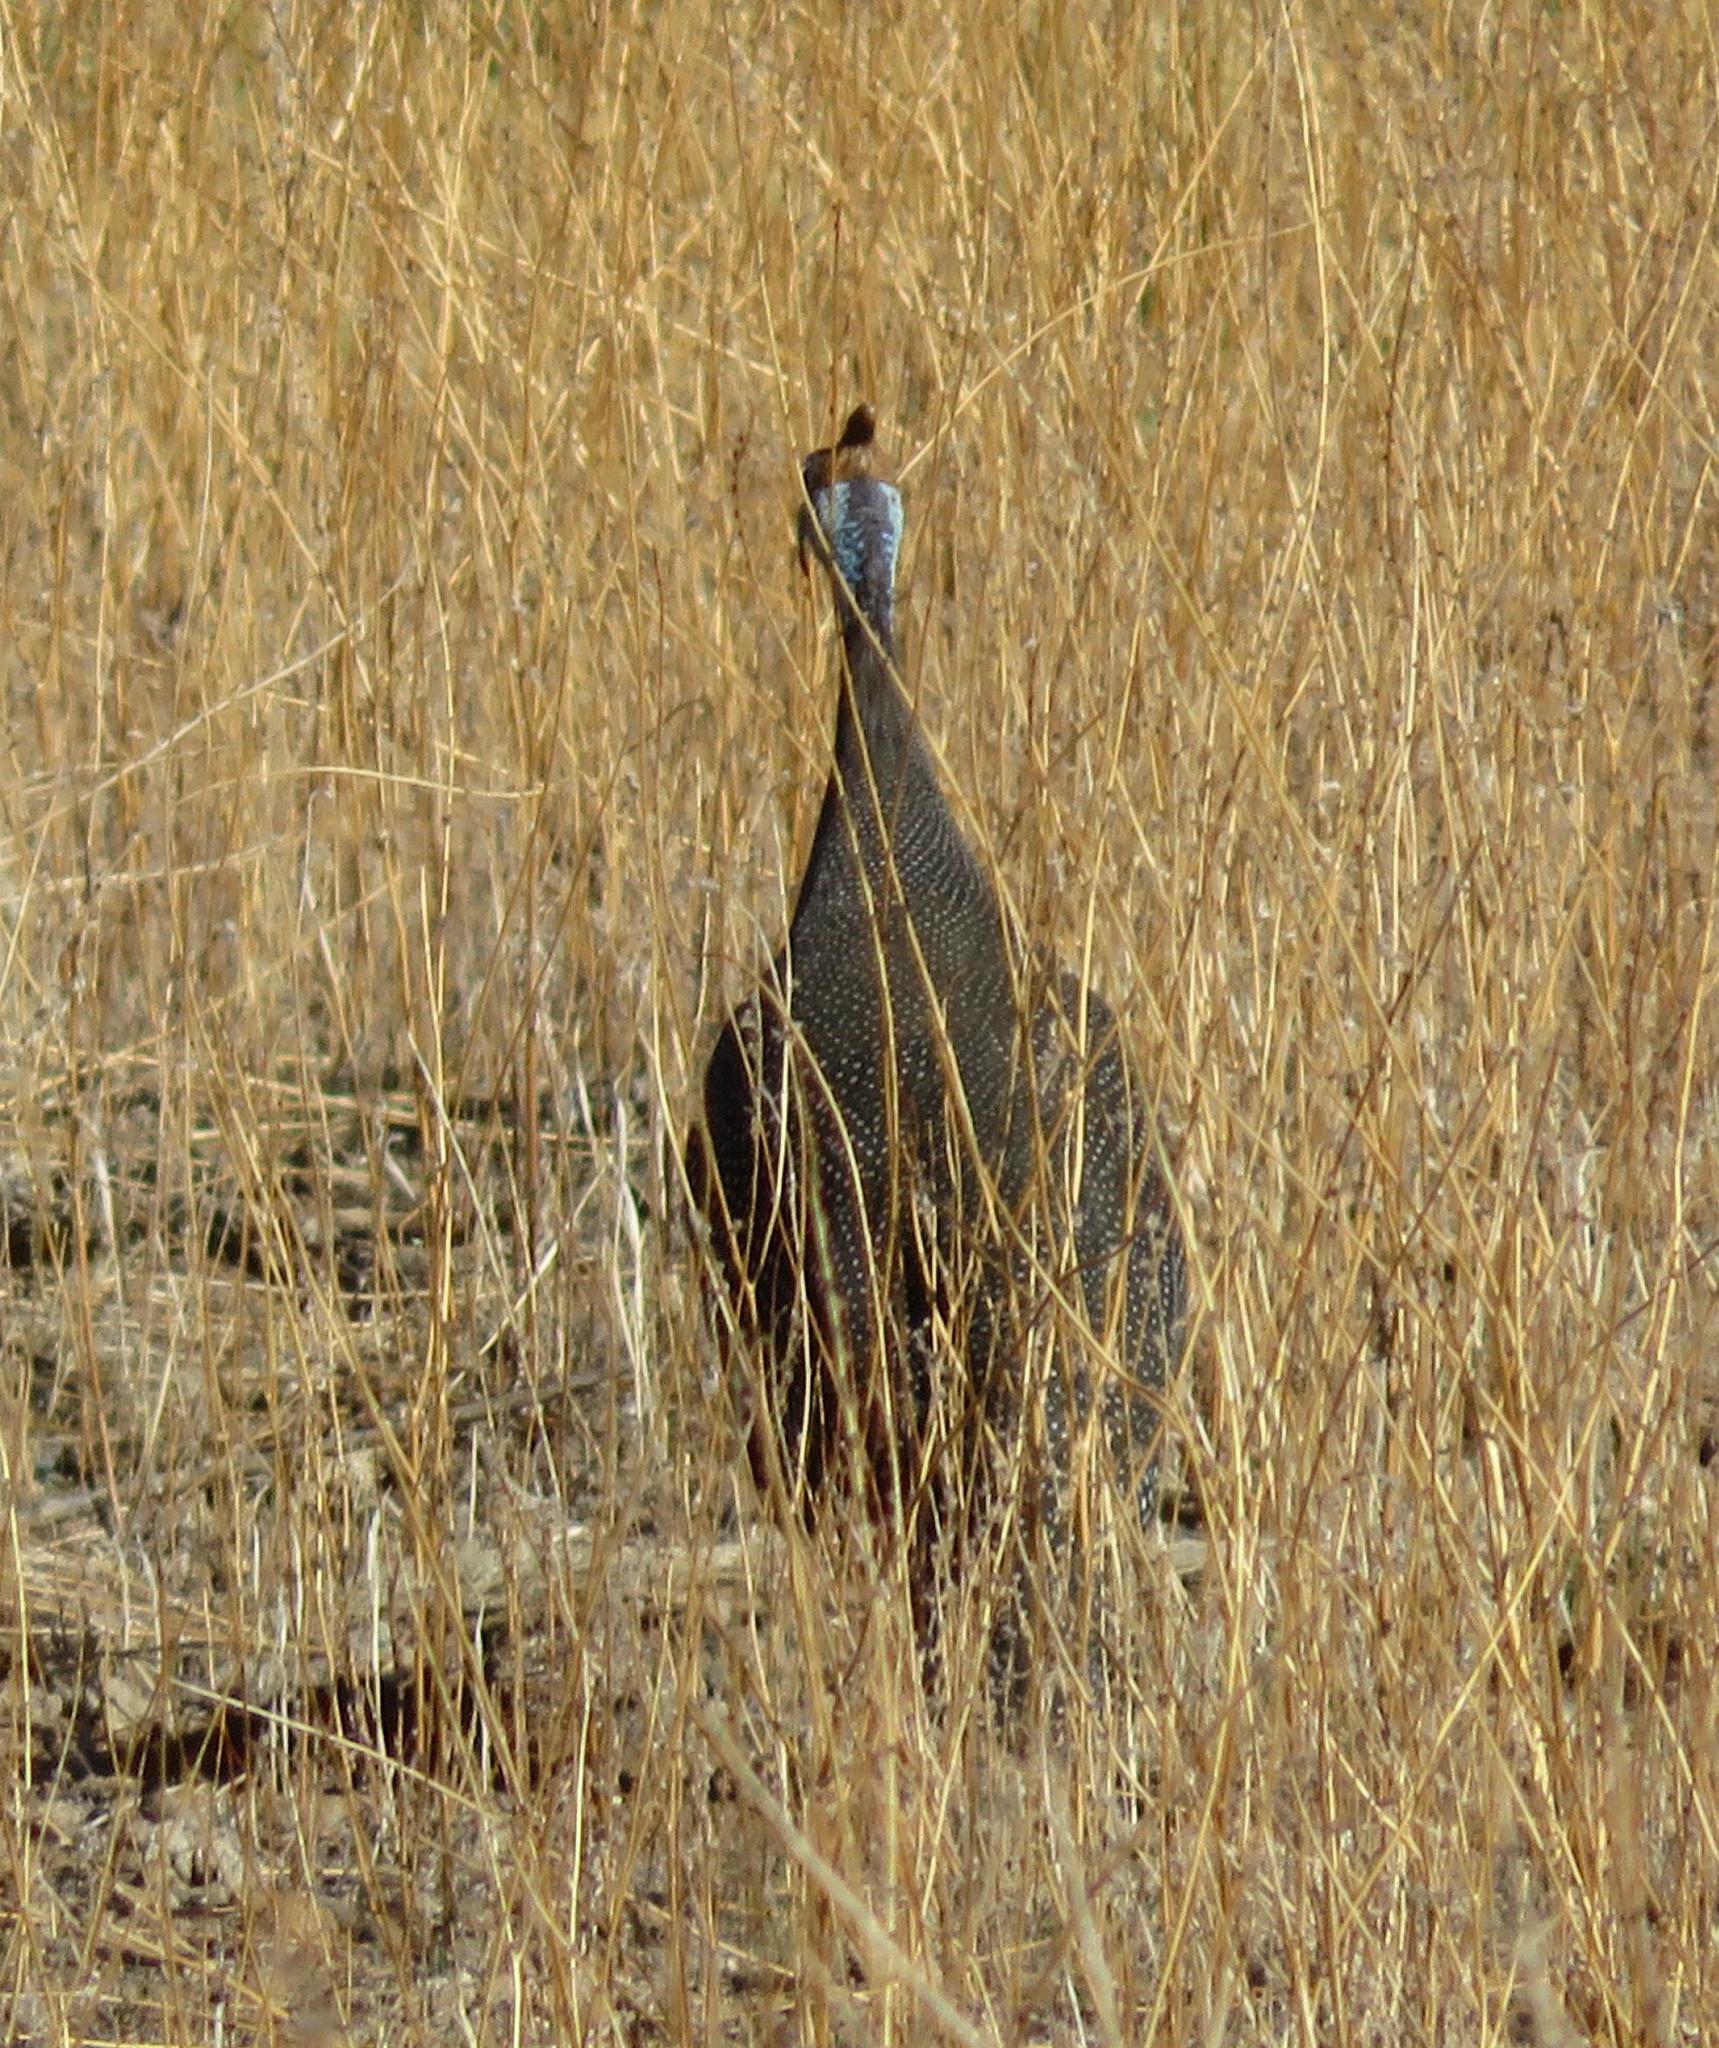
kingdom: Animalia
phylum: Chordata
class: Aves
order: Galliformes
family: Numididae
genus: Numida
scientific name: Numida meleagris
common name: Helmeted guineafowl
